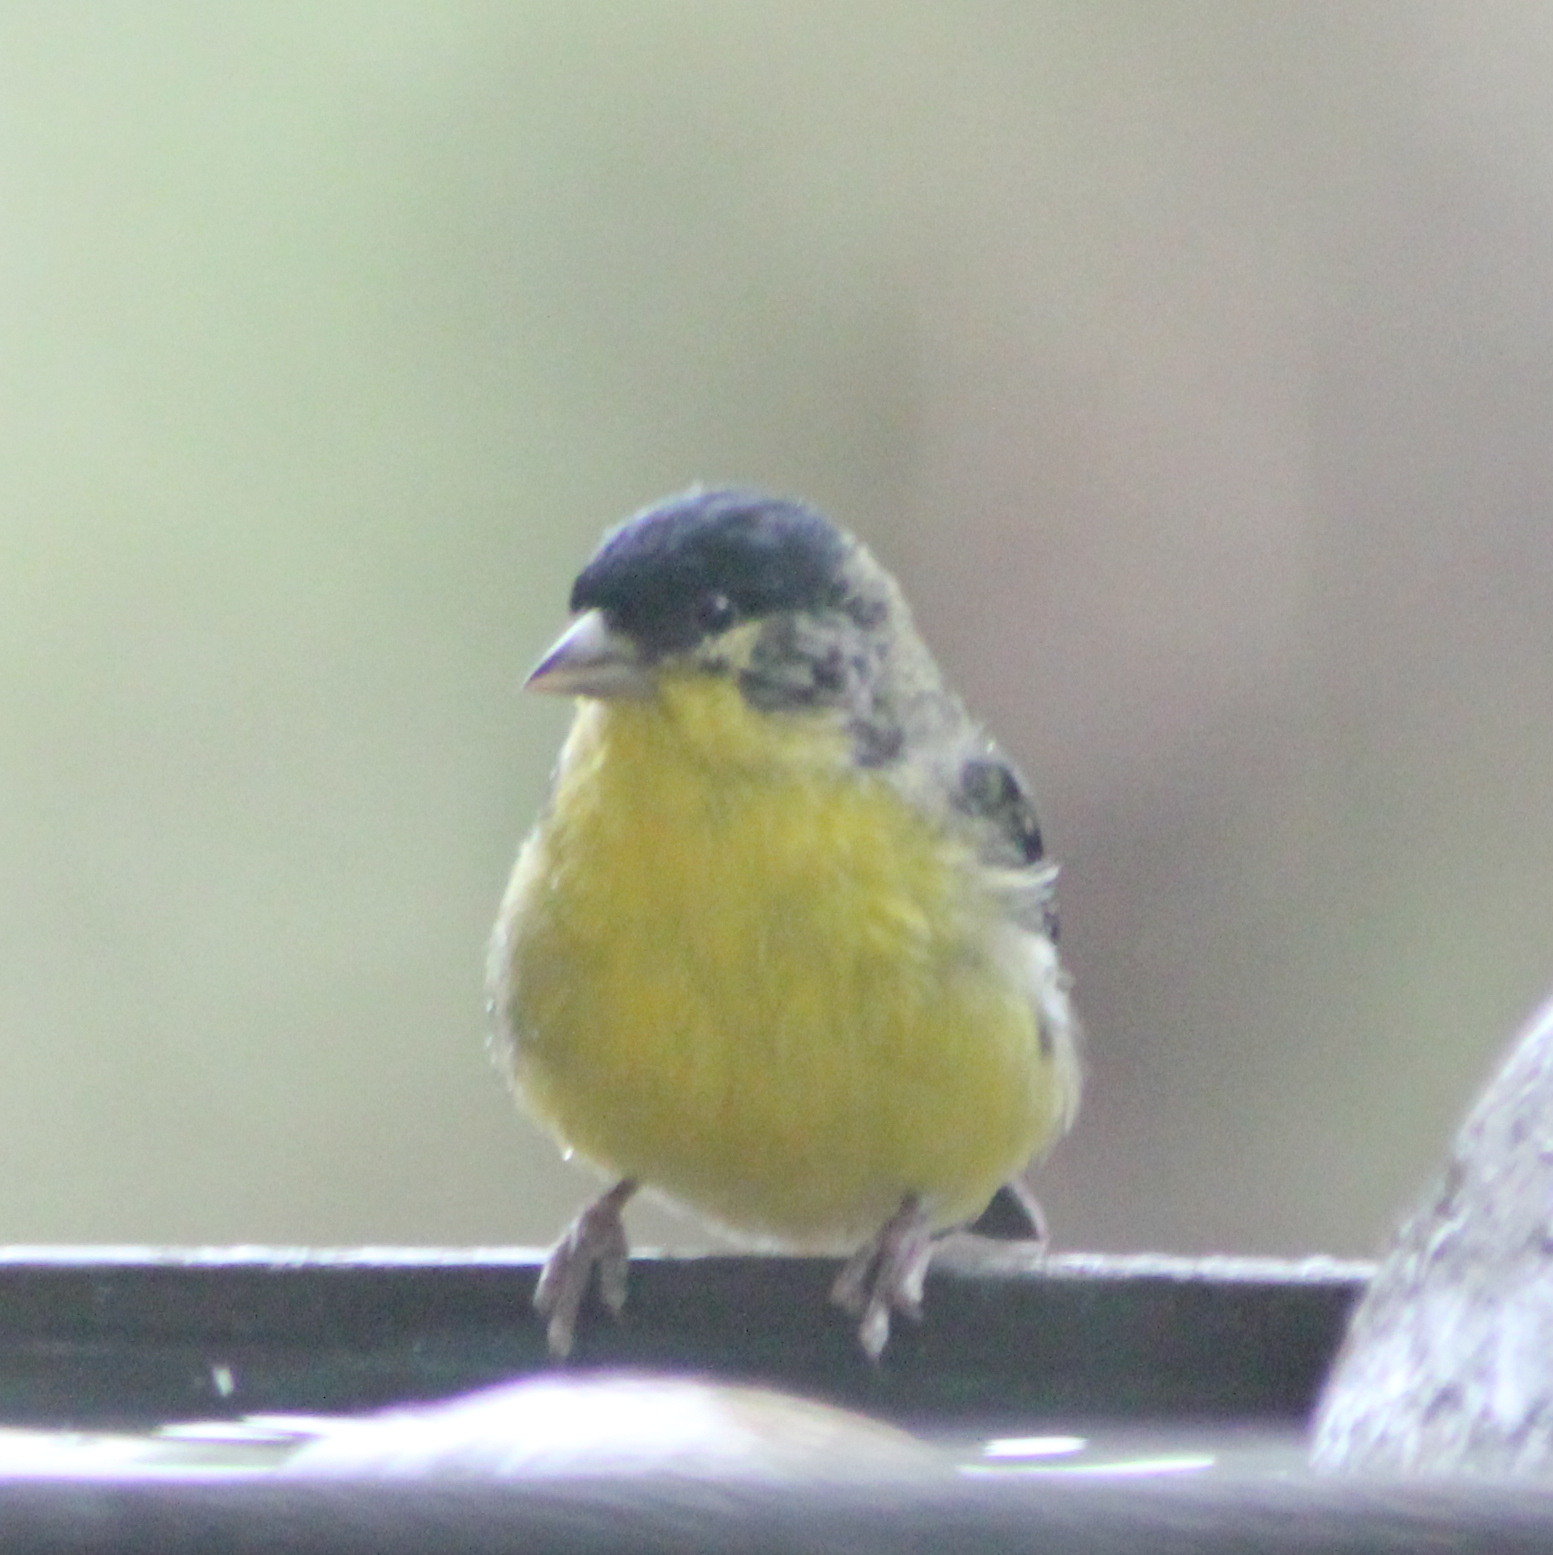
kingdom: Animalia
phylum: Chordata
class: Aves
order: Passeriformes
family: Fringillidae
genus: Spinus
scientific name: Spinus psaltria
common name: Lesser goldfinch
